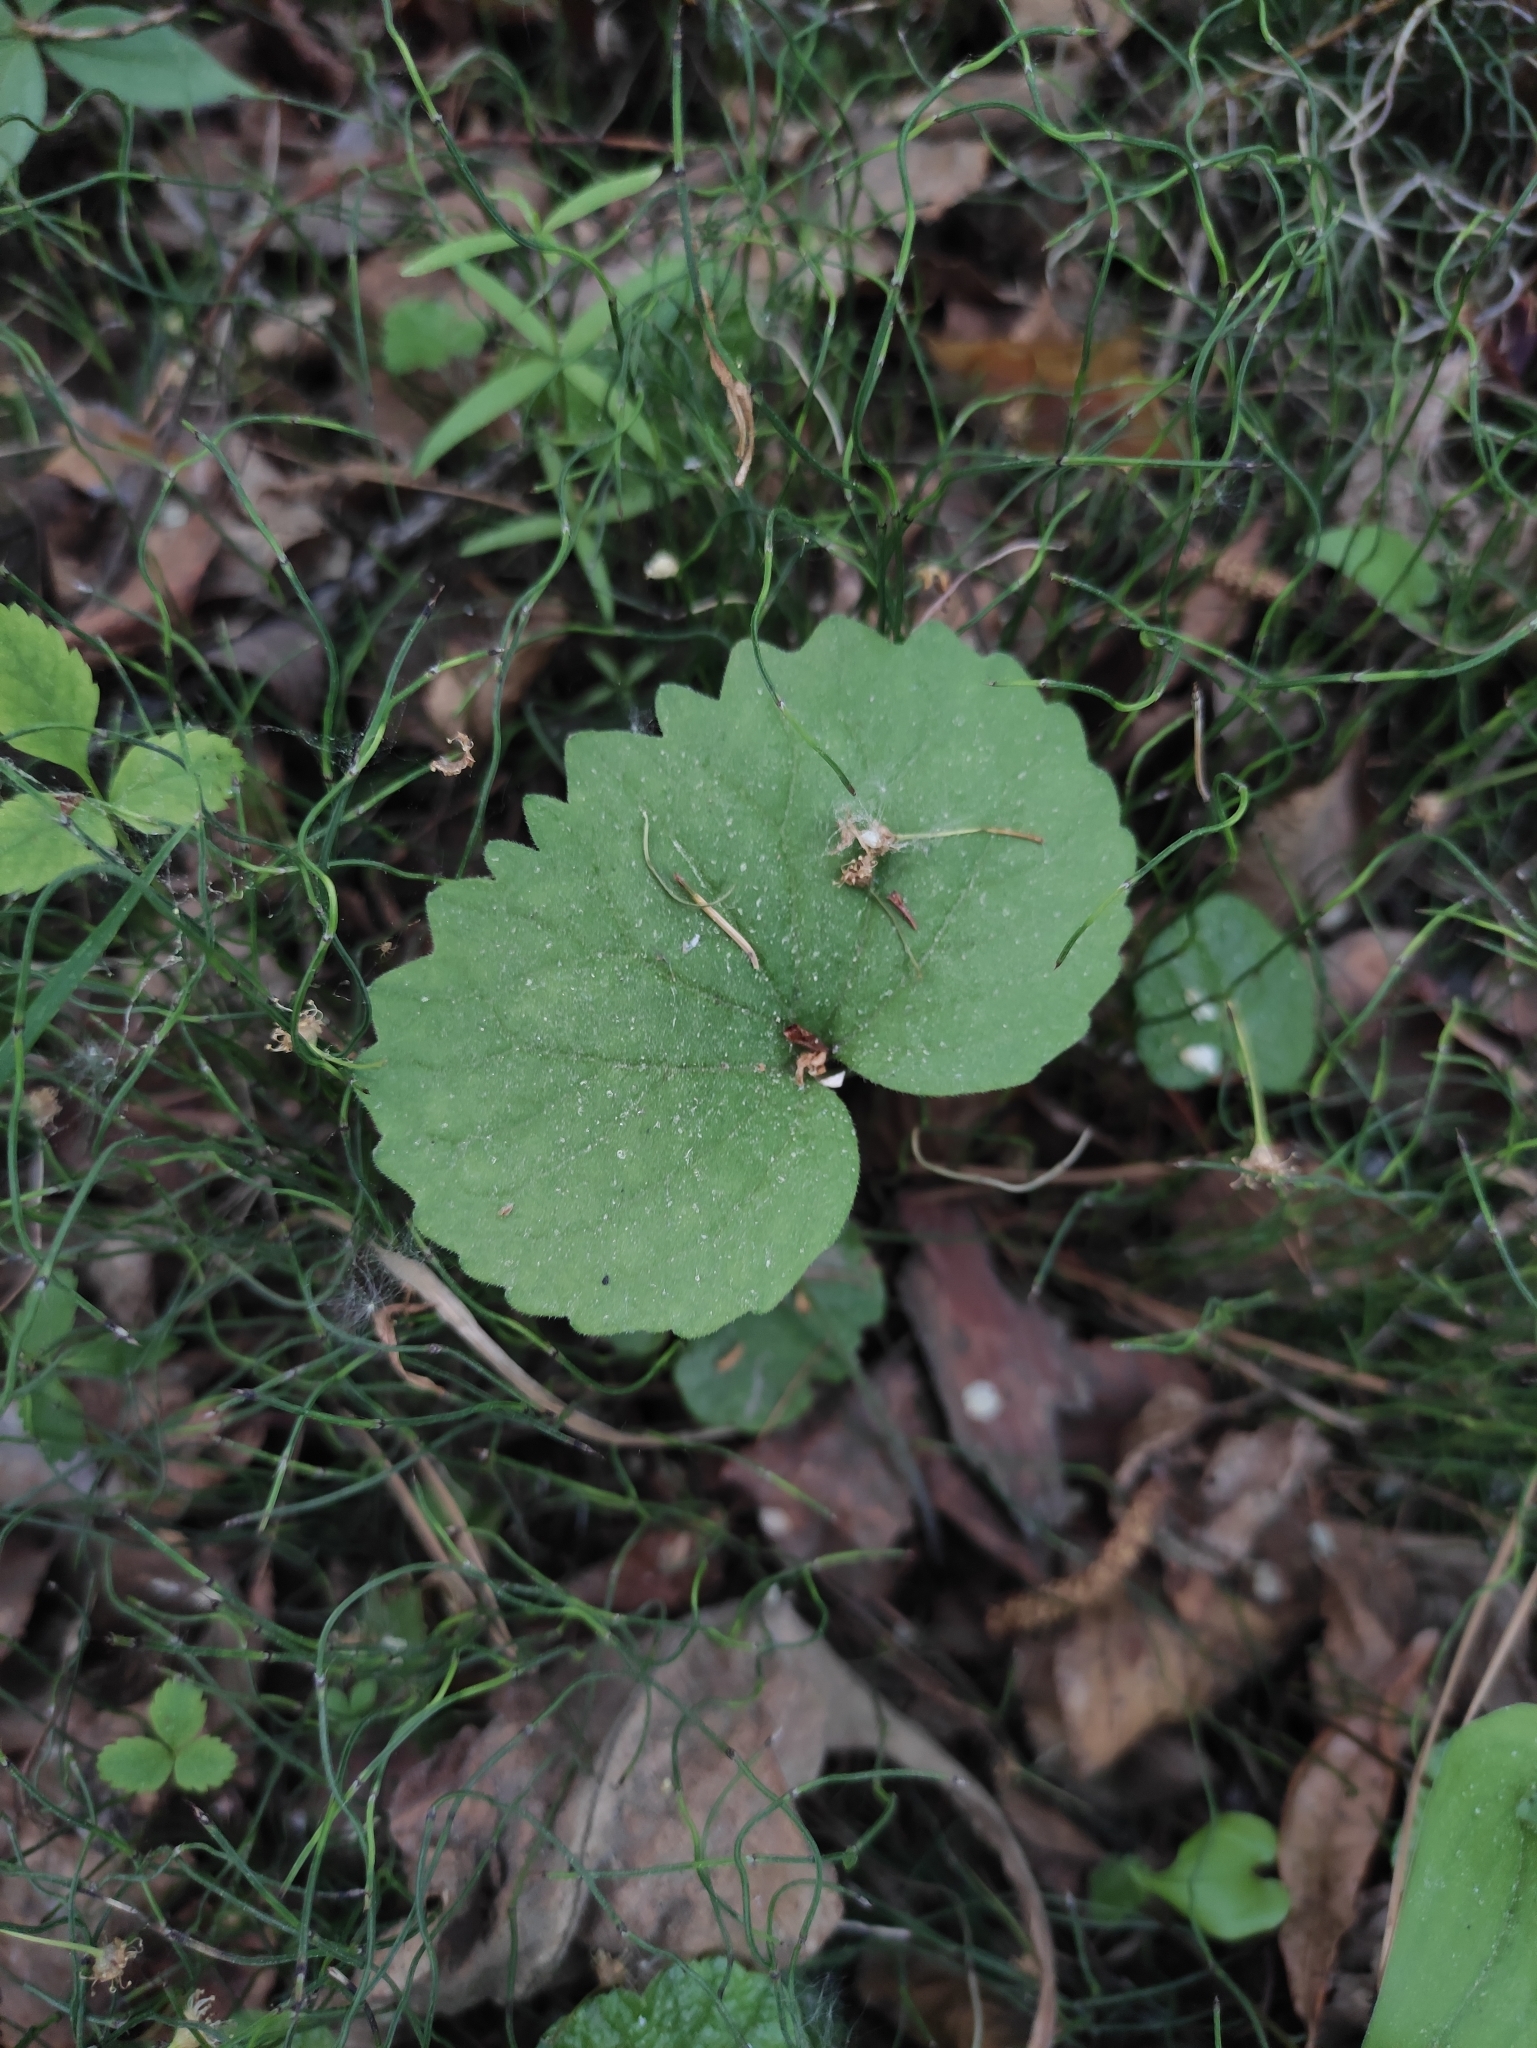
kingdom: Plantae
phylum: Tracheophyta
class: Magnoliopsida
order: Malpighiales
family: Violaceae
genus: Viola
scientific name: Viola uniflora
